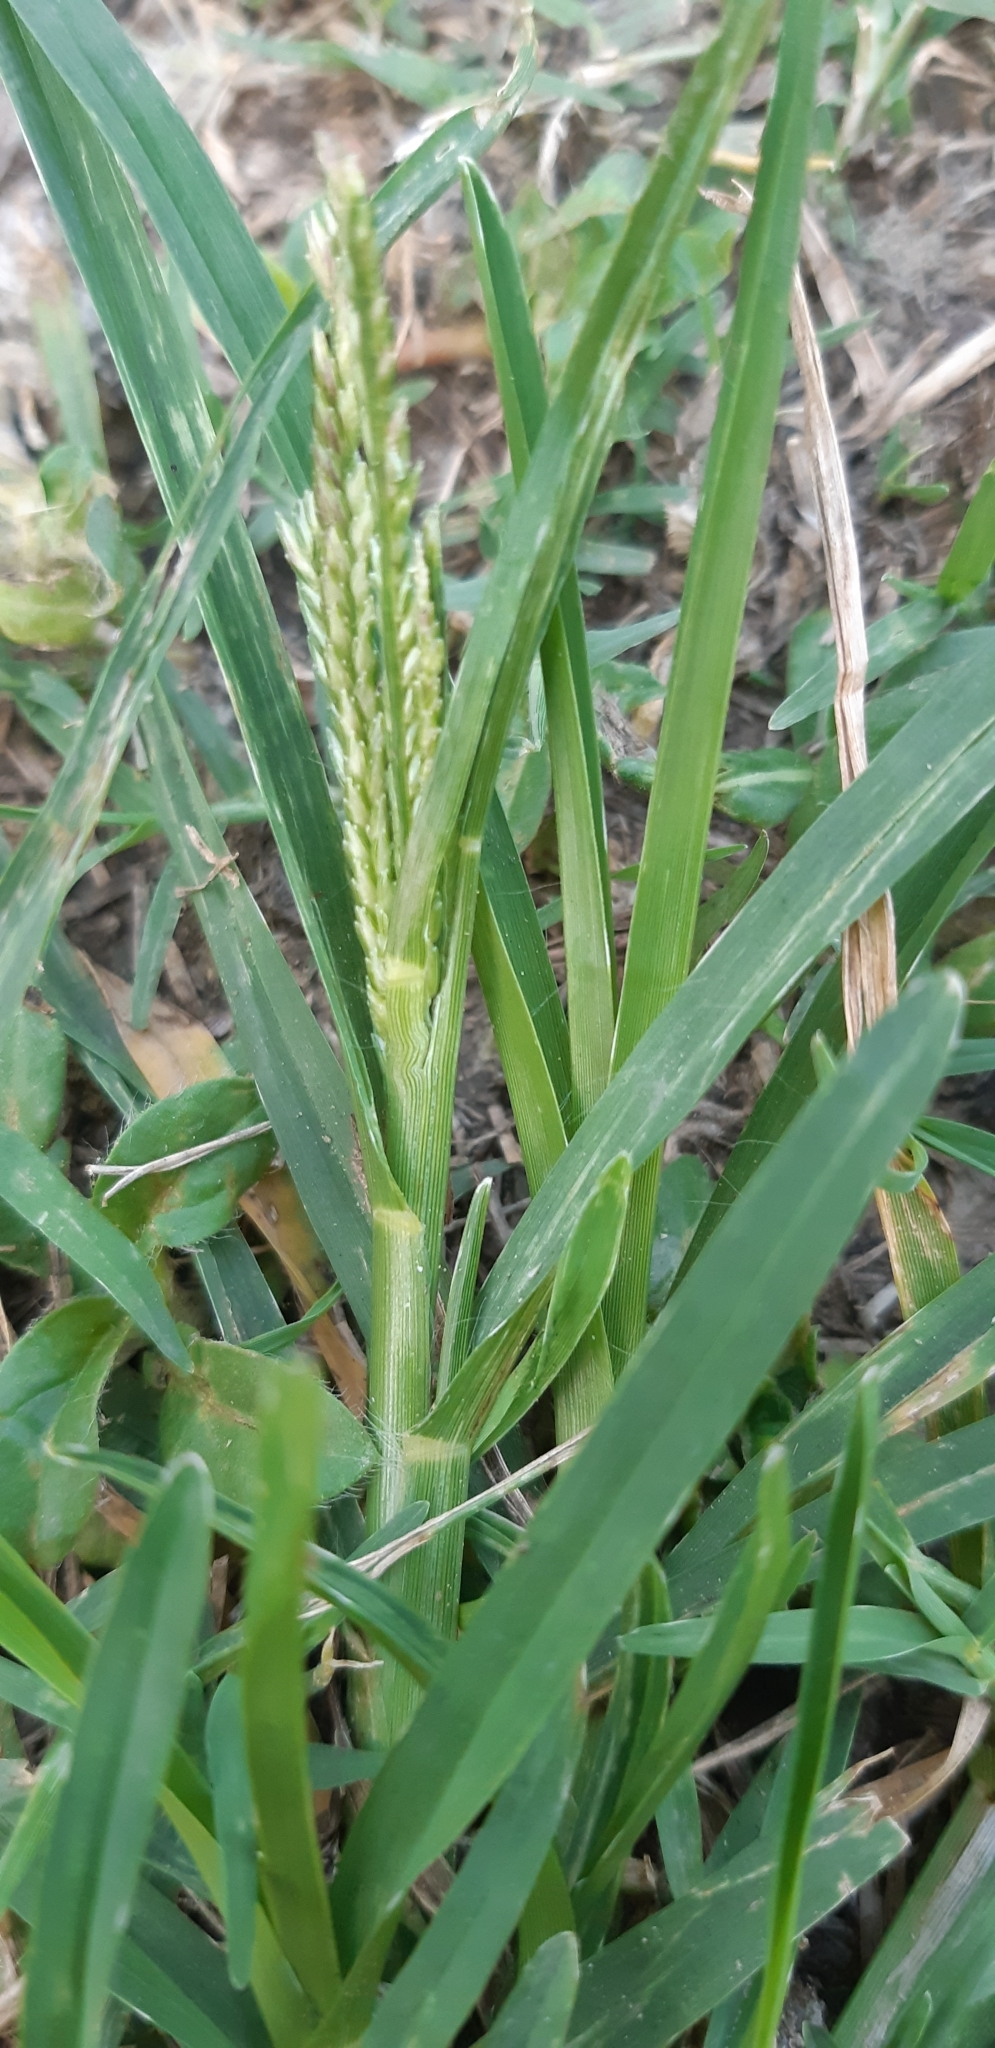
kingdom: Plantae
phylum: Tracheophyta
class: Liliopsida
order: Poales
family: Poaceae
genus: Eleusine
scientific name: Eleusine indica
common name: Yard-grass
